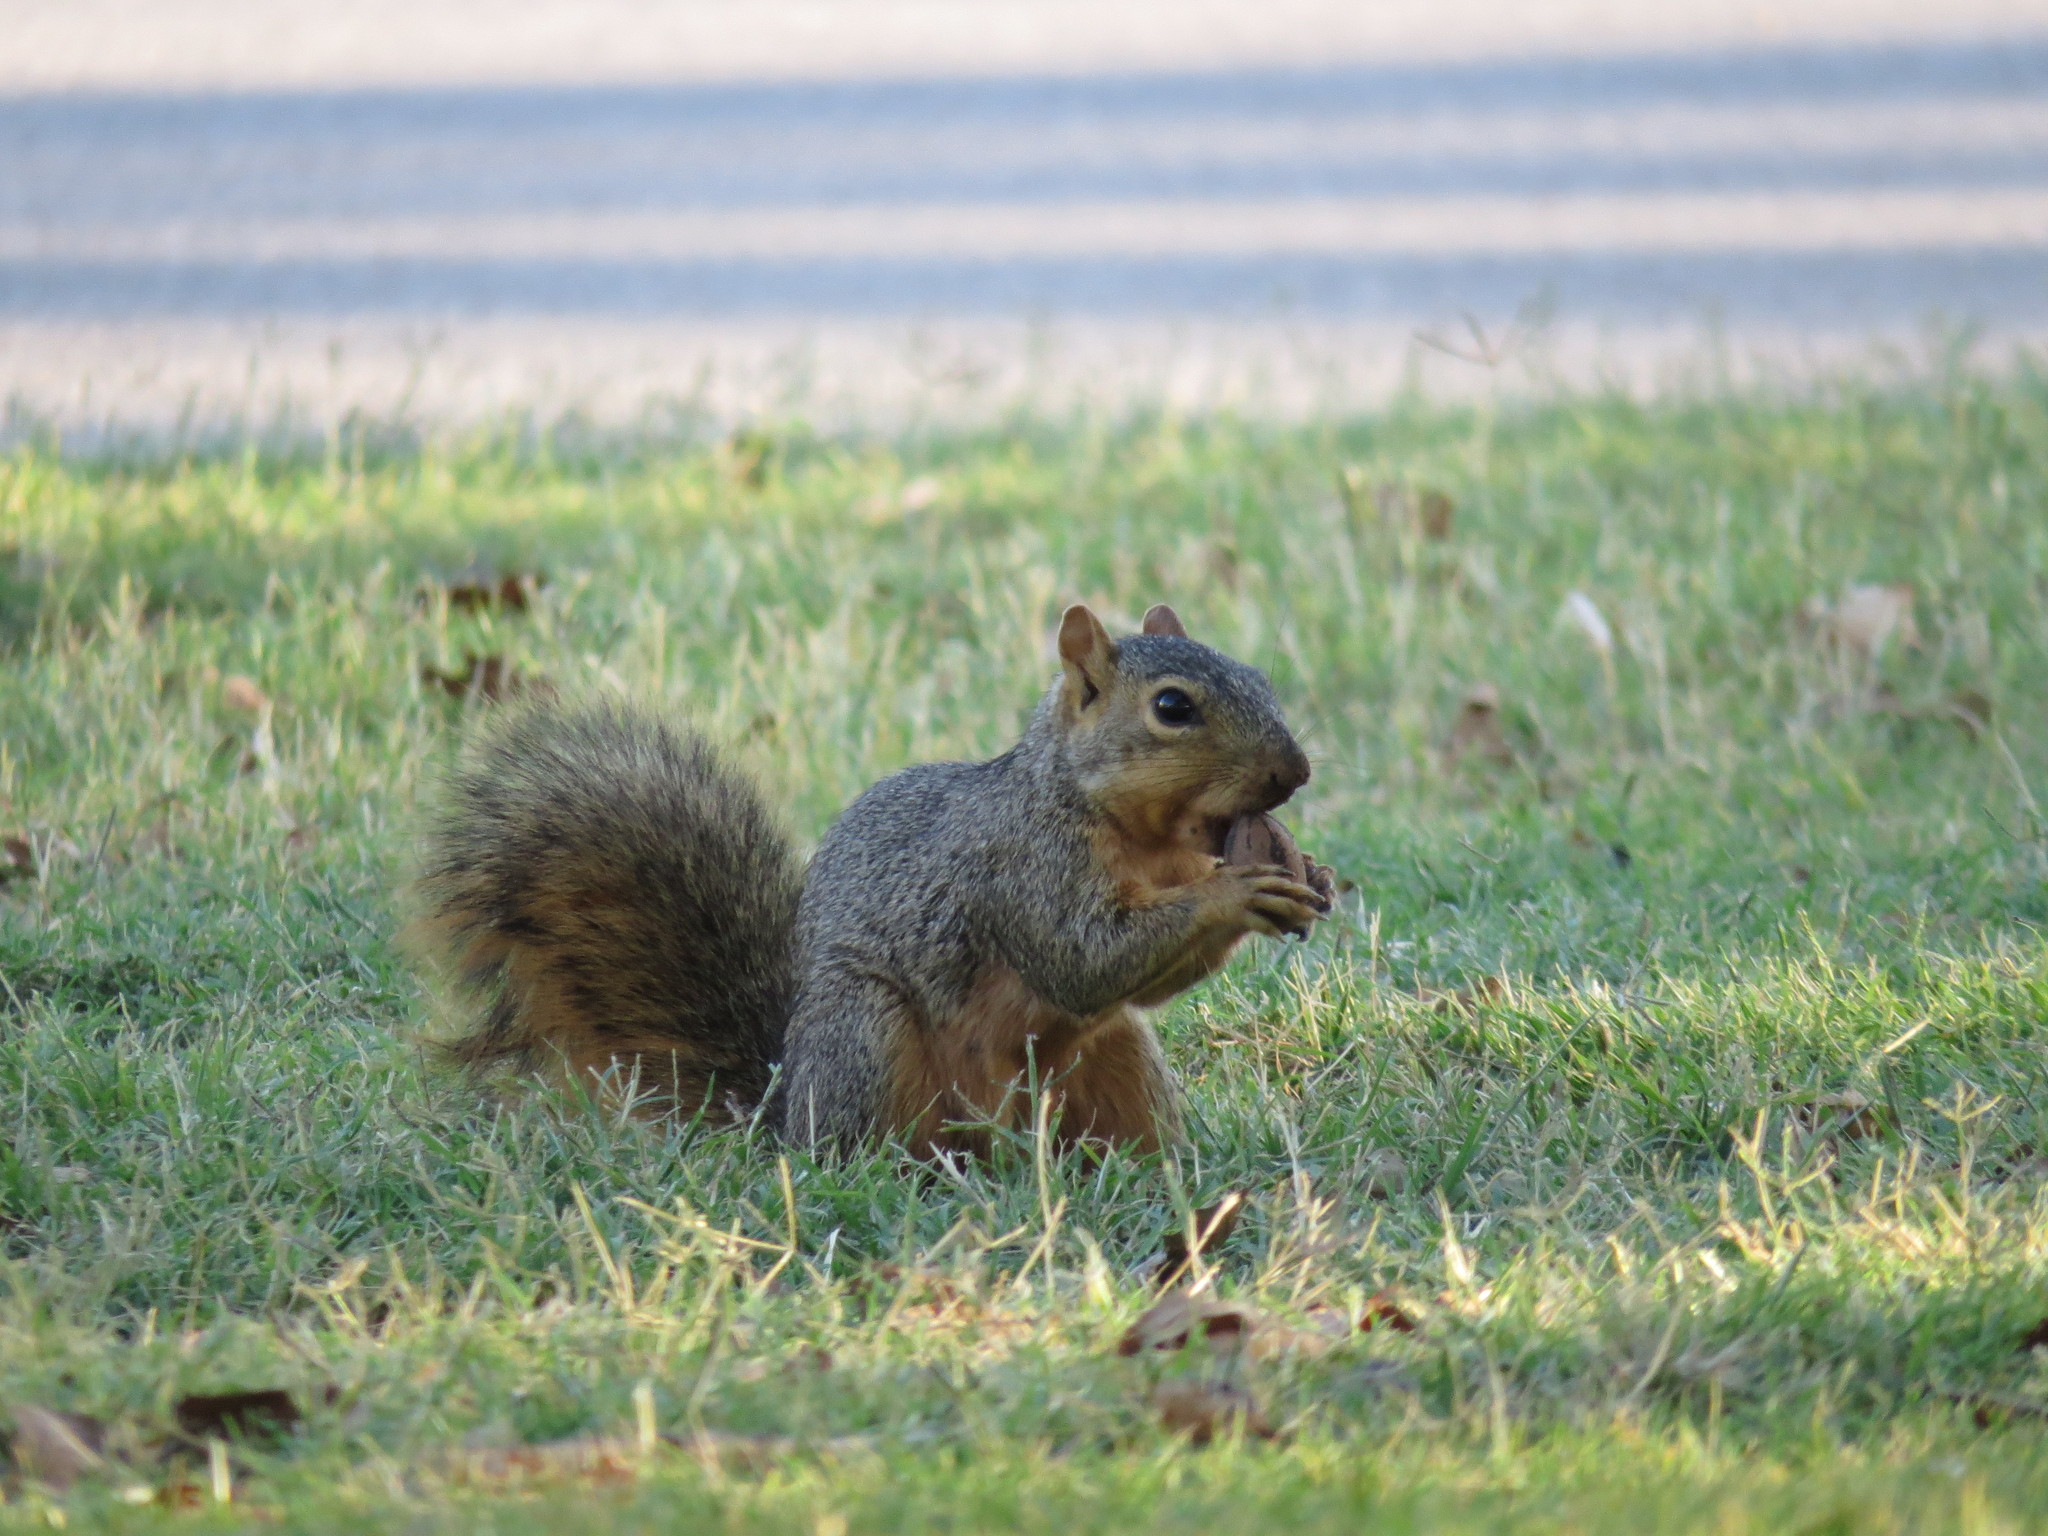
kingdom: Animalia
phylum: Chordata
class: Mammalia
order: Rodentia
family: Sciuridae
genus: Sciurus
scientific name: Sciurus niger
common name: Fox squirrel
